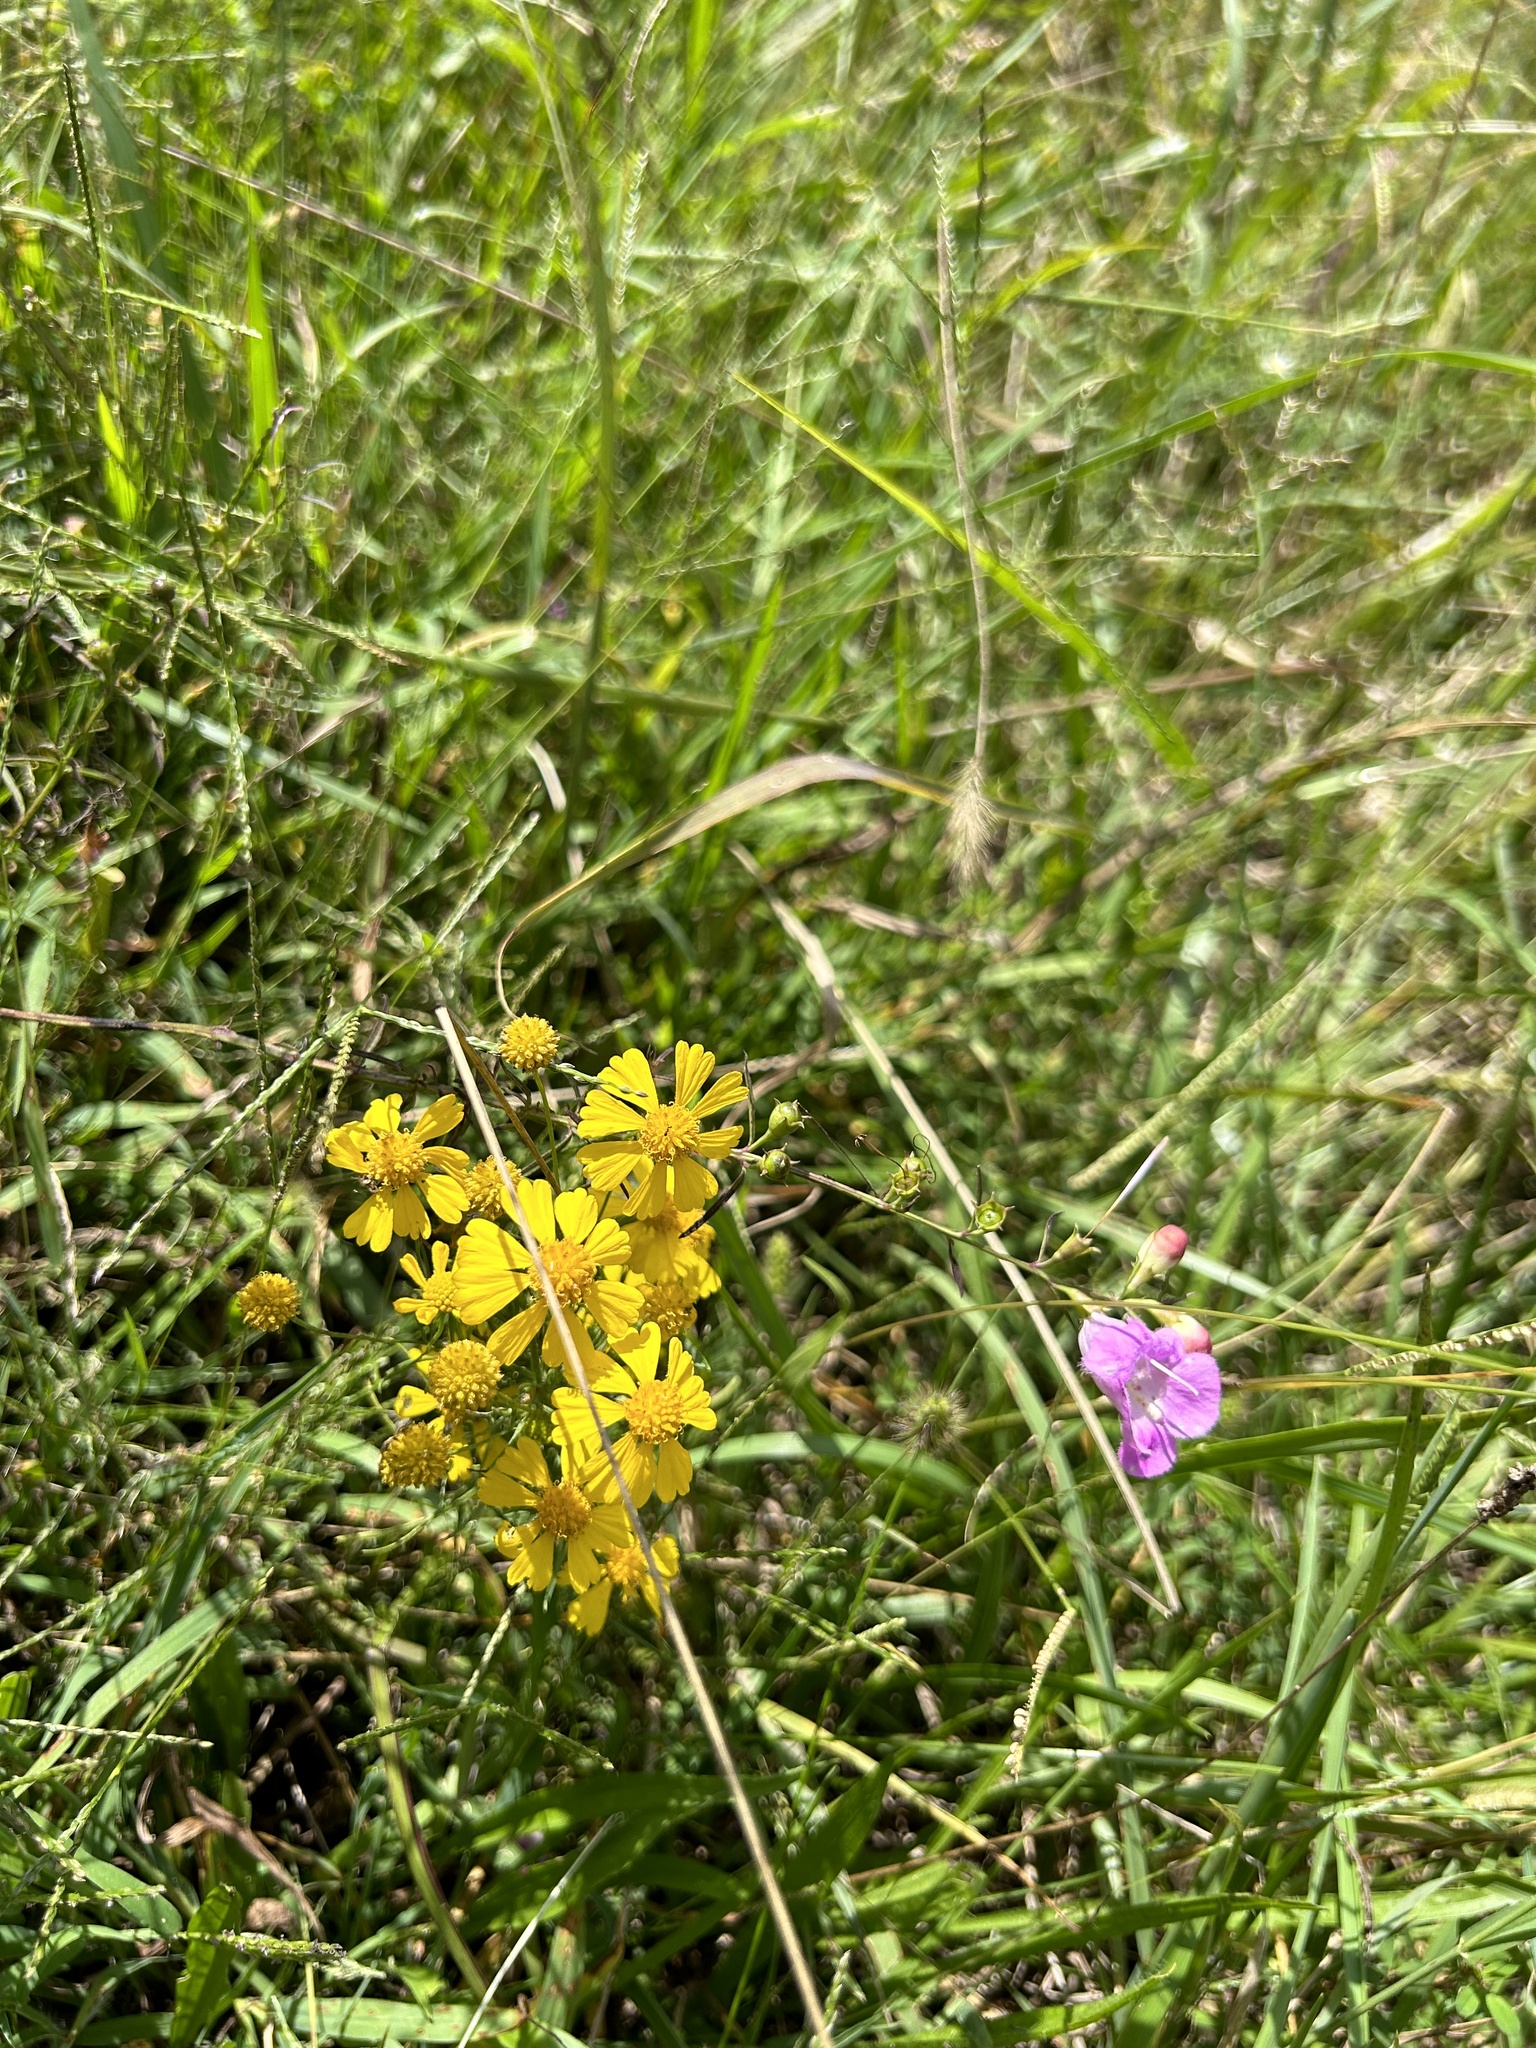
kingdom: Plantae
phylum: Tracheophyta
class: Magnoliopsida
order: Asterales
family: Asteraceae
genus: Helenium
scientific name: Helenium amarum
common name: Bitter sneezeweed
